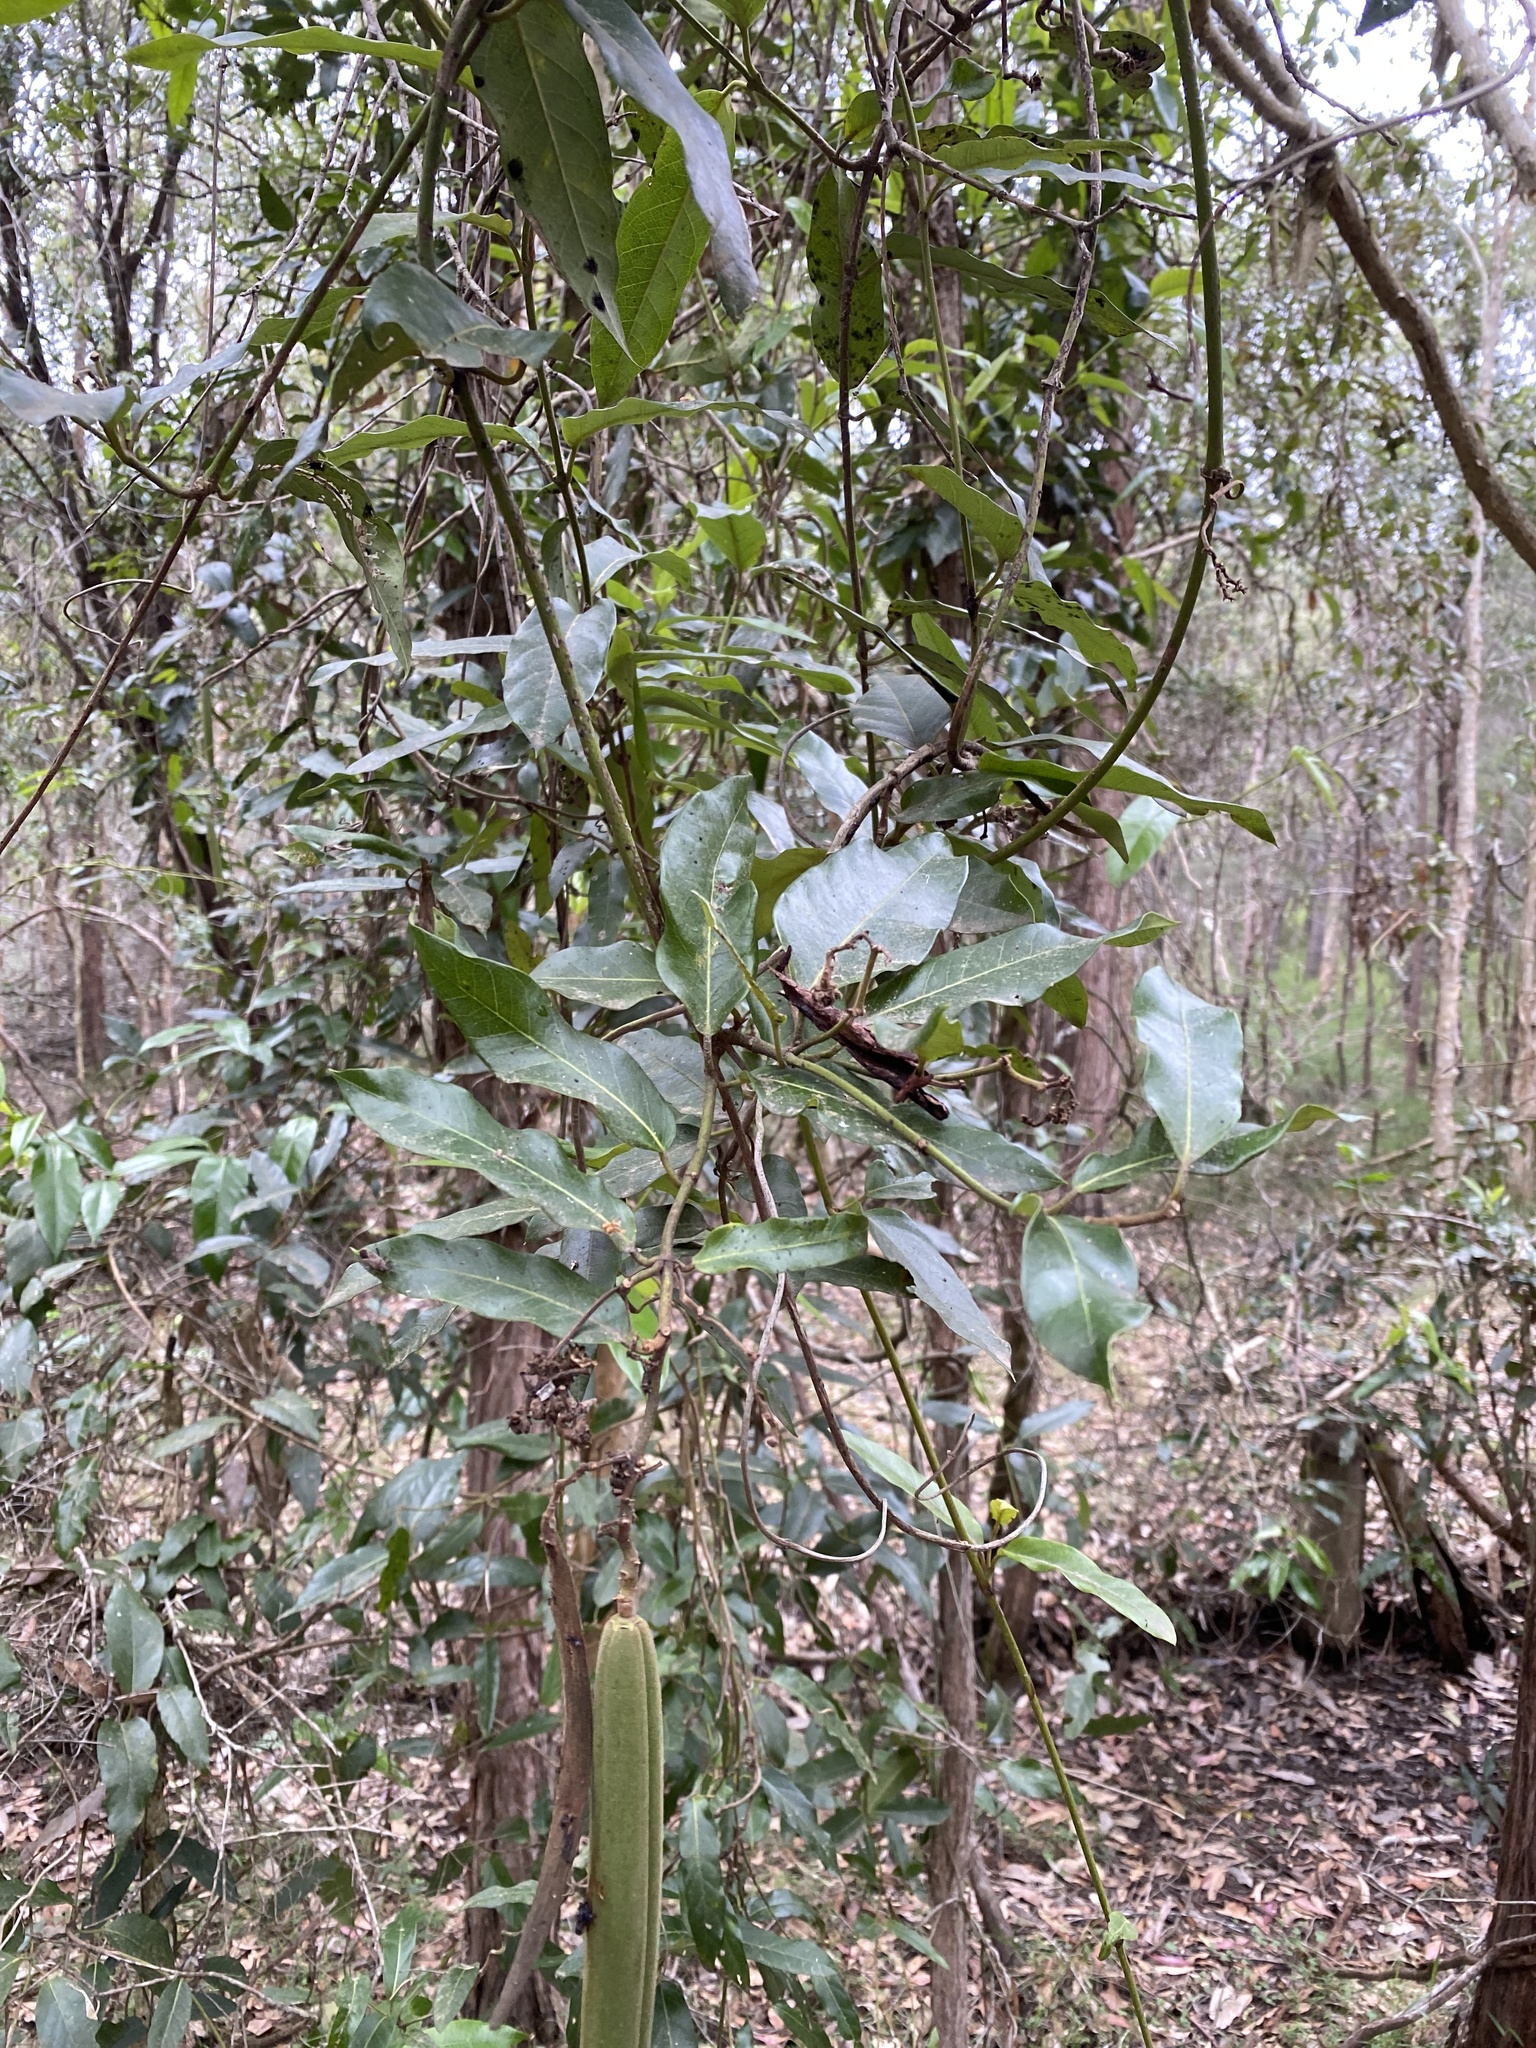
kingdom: Plantae
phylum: Tracheophyta
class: Magnoliopsida
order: Gentianales
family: Apocynaceae
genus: Parsonsia
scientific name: Parsonsia straminea
